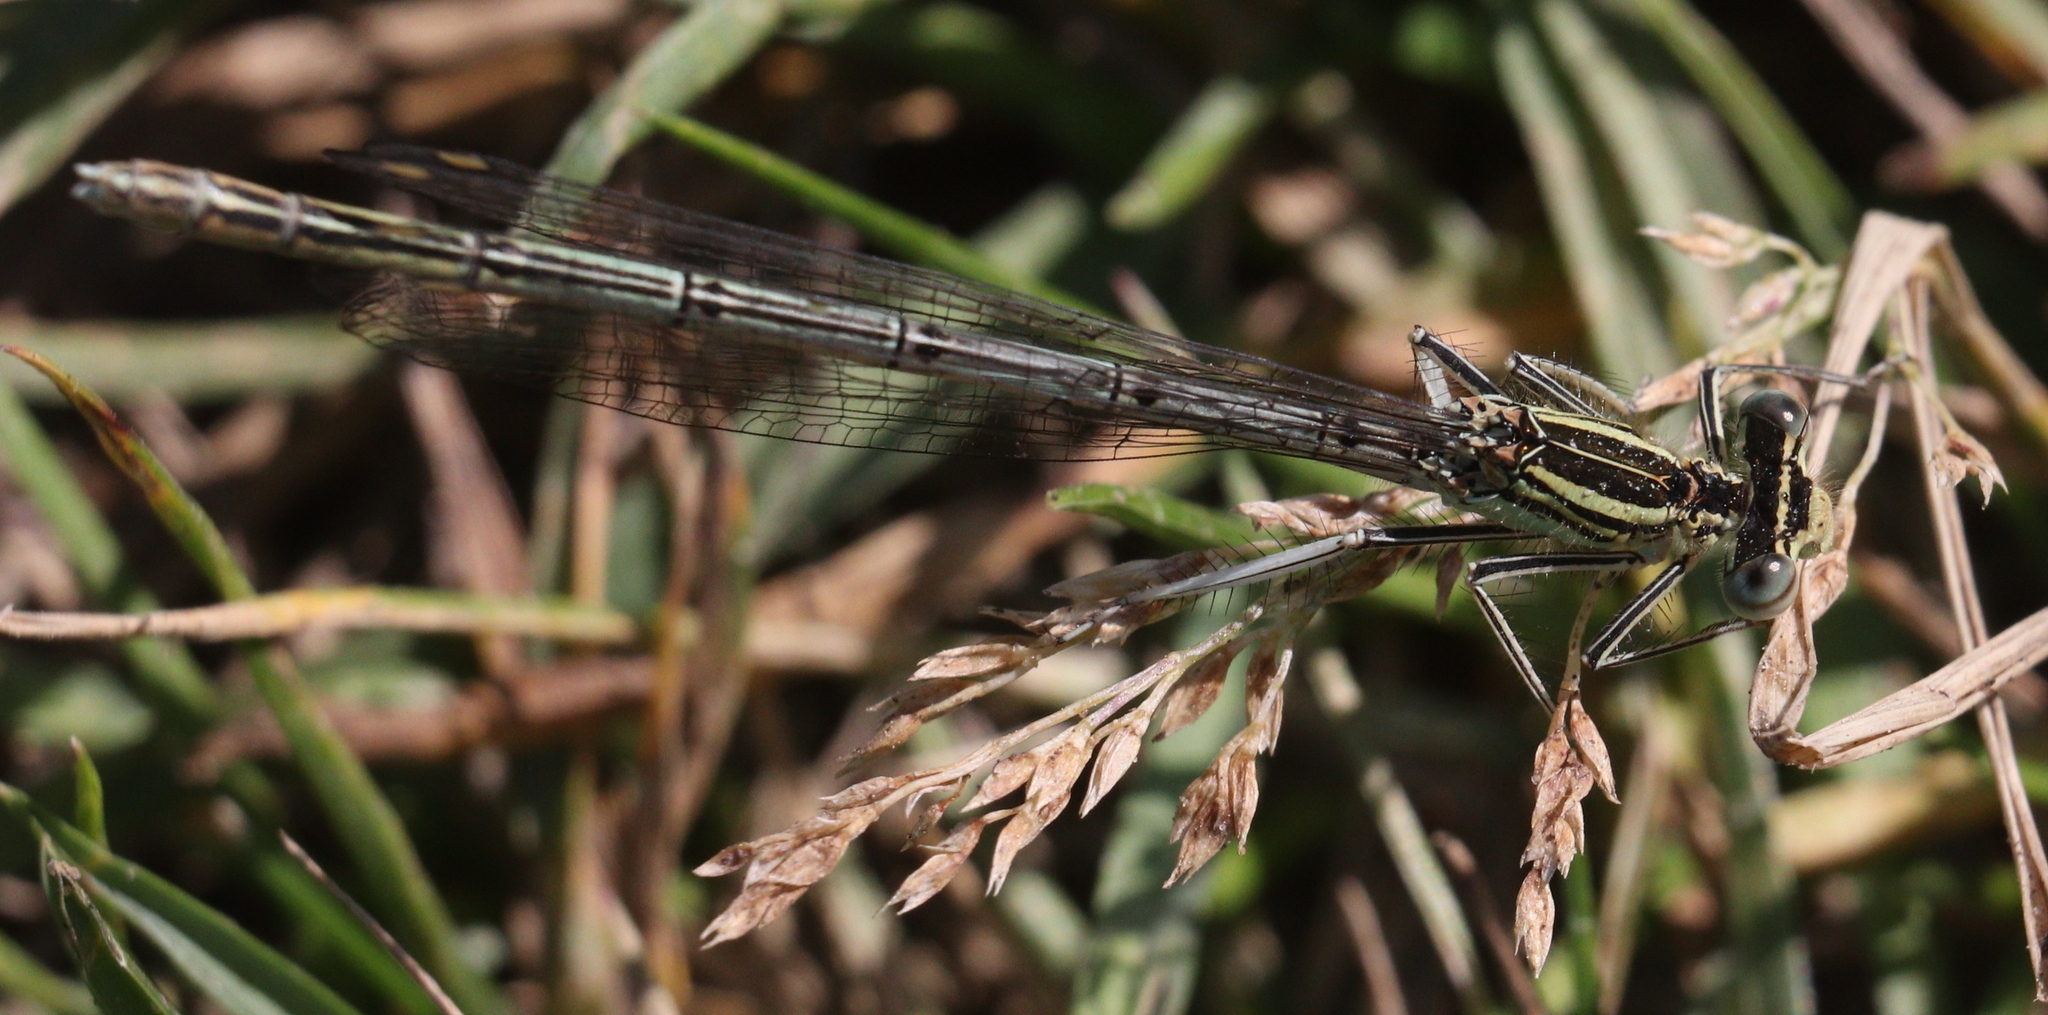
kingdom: Animalia
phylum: Arthropoda
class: Insecta
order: Odonata
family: Platycnemididae
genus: Platycnemis
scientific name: Platycnemis pennipes
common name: White-legged damselfly
